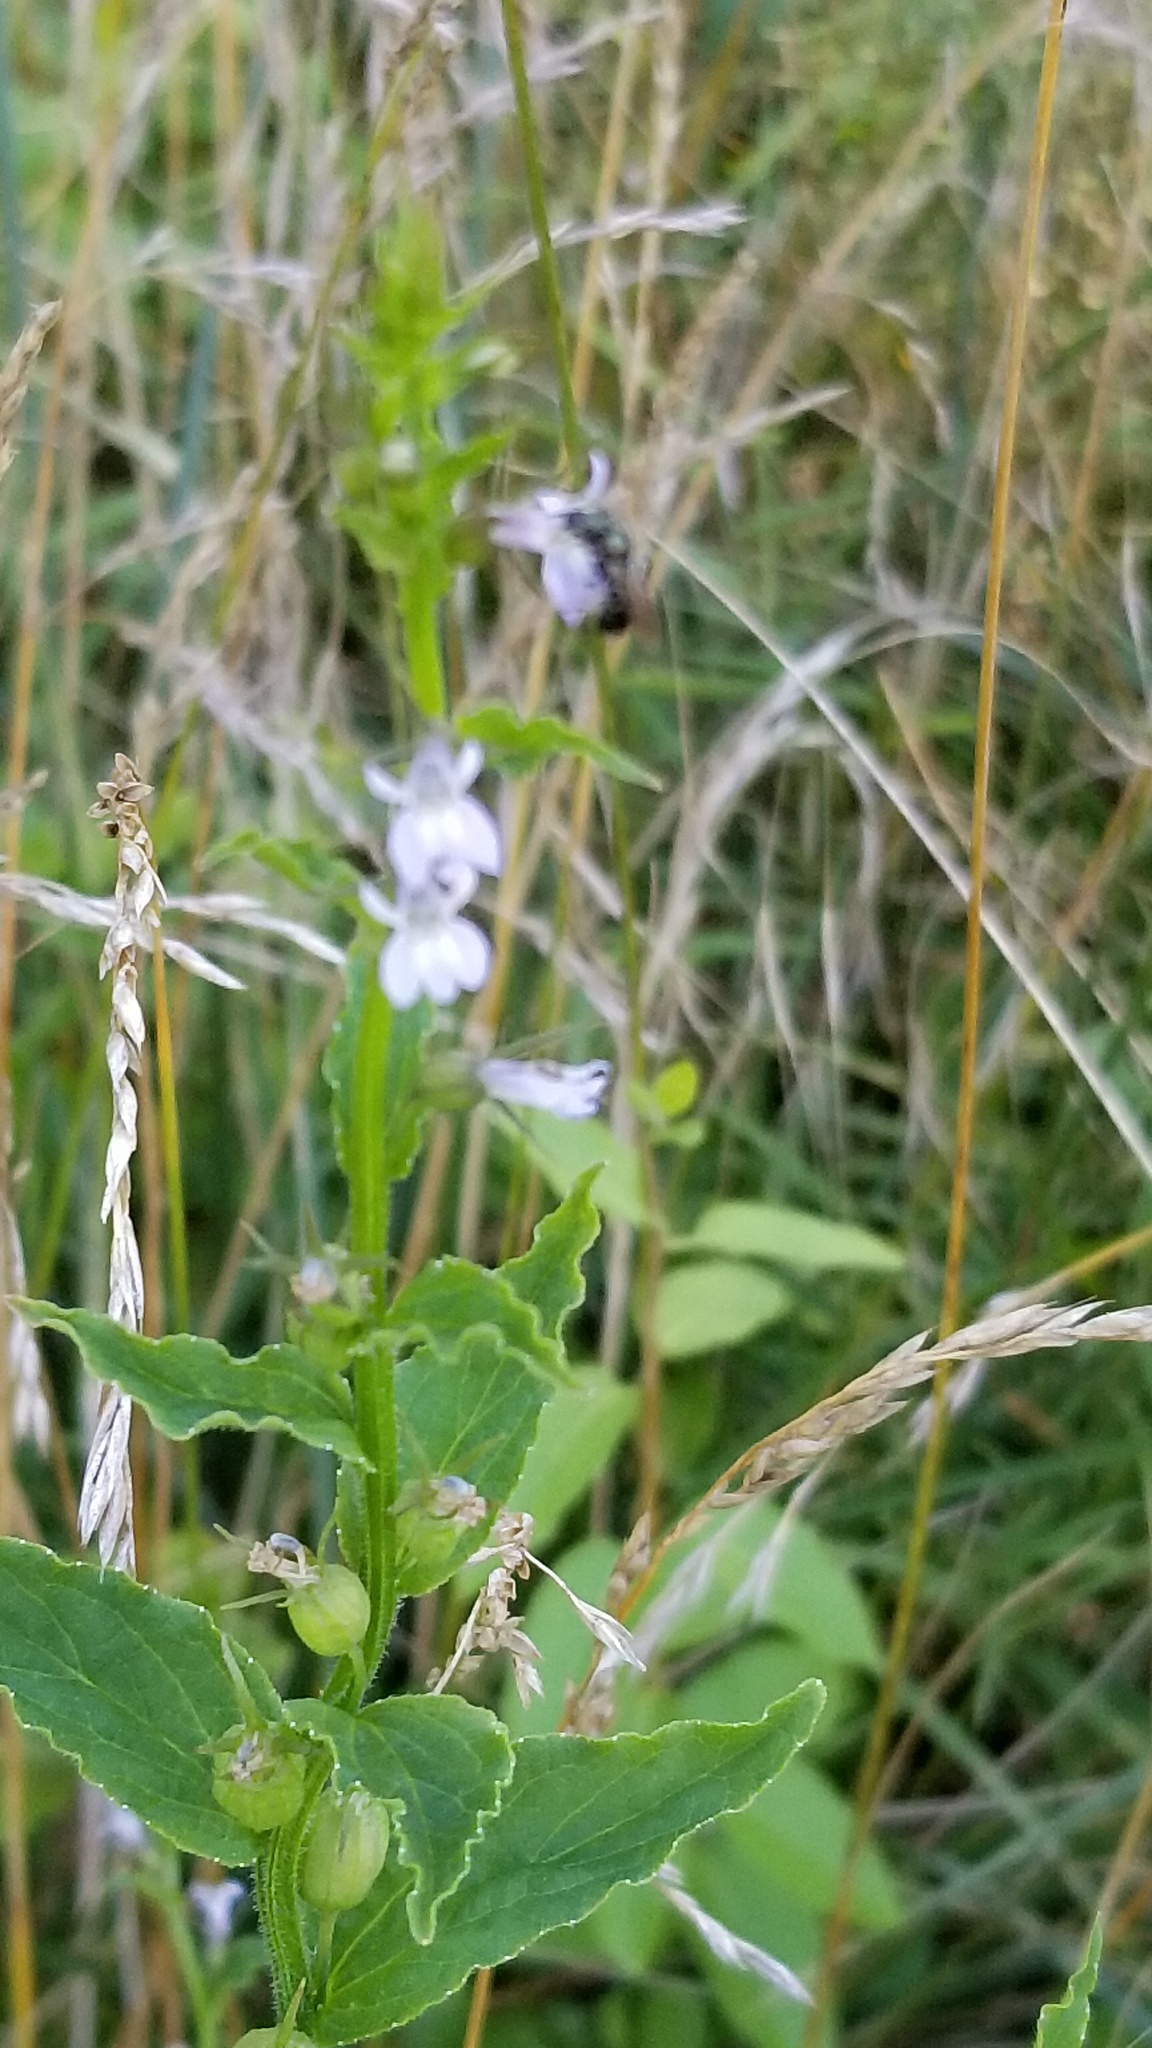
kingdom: Plantae
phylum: Tracheophyta
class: Magnoliopsida
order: Asterales
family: Campanulaceae
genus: Lobelia
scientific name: Lobelia inflata
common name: Indian tobacco
